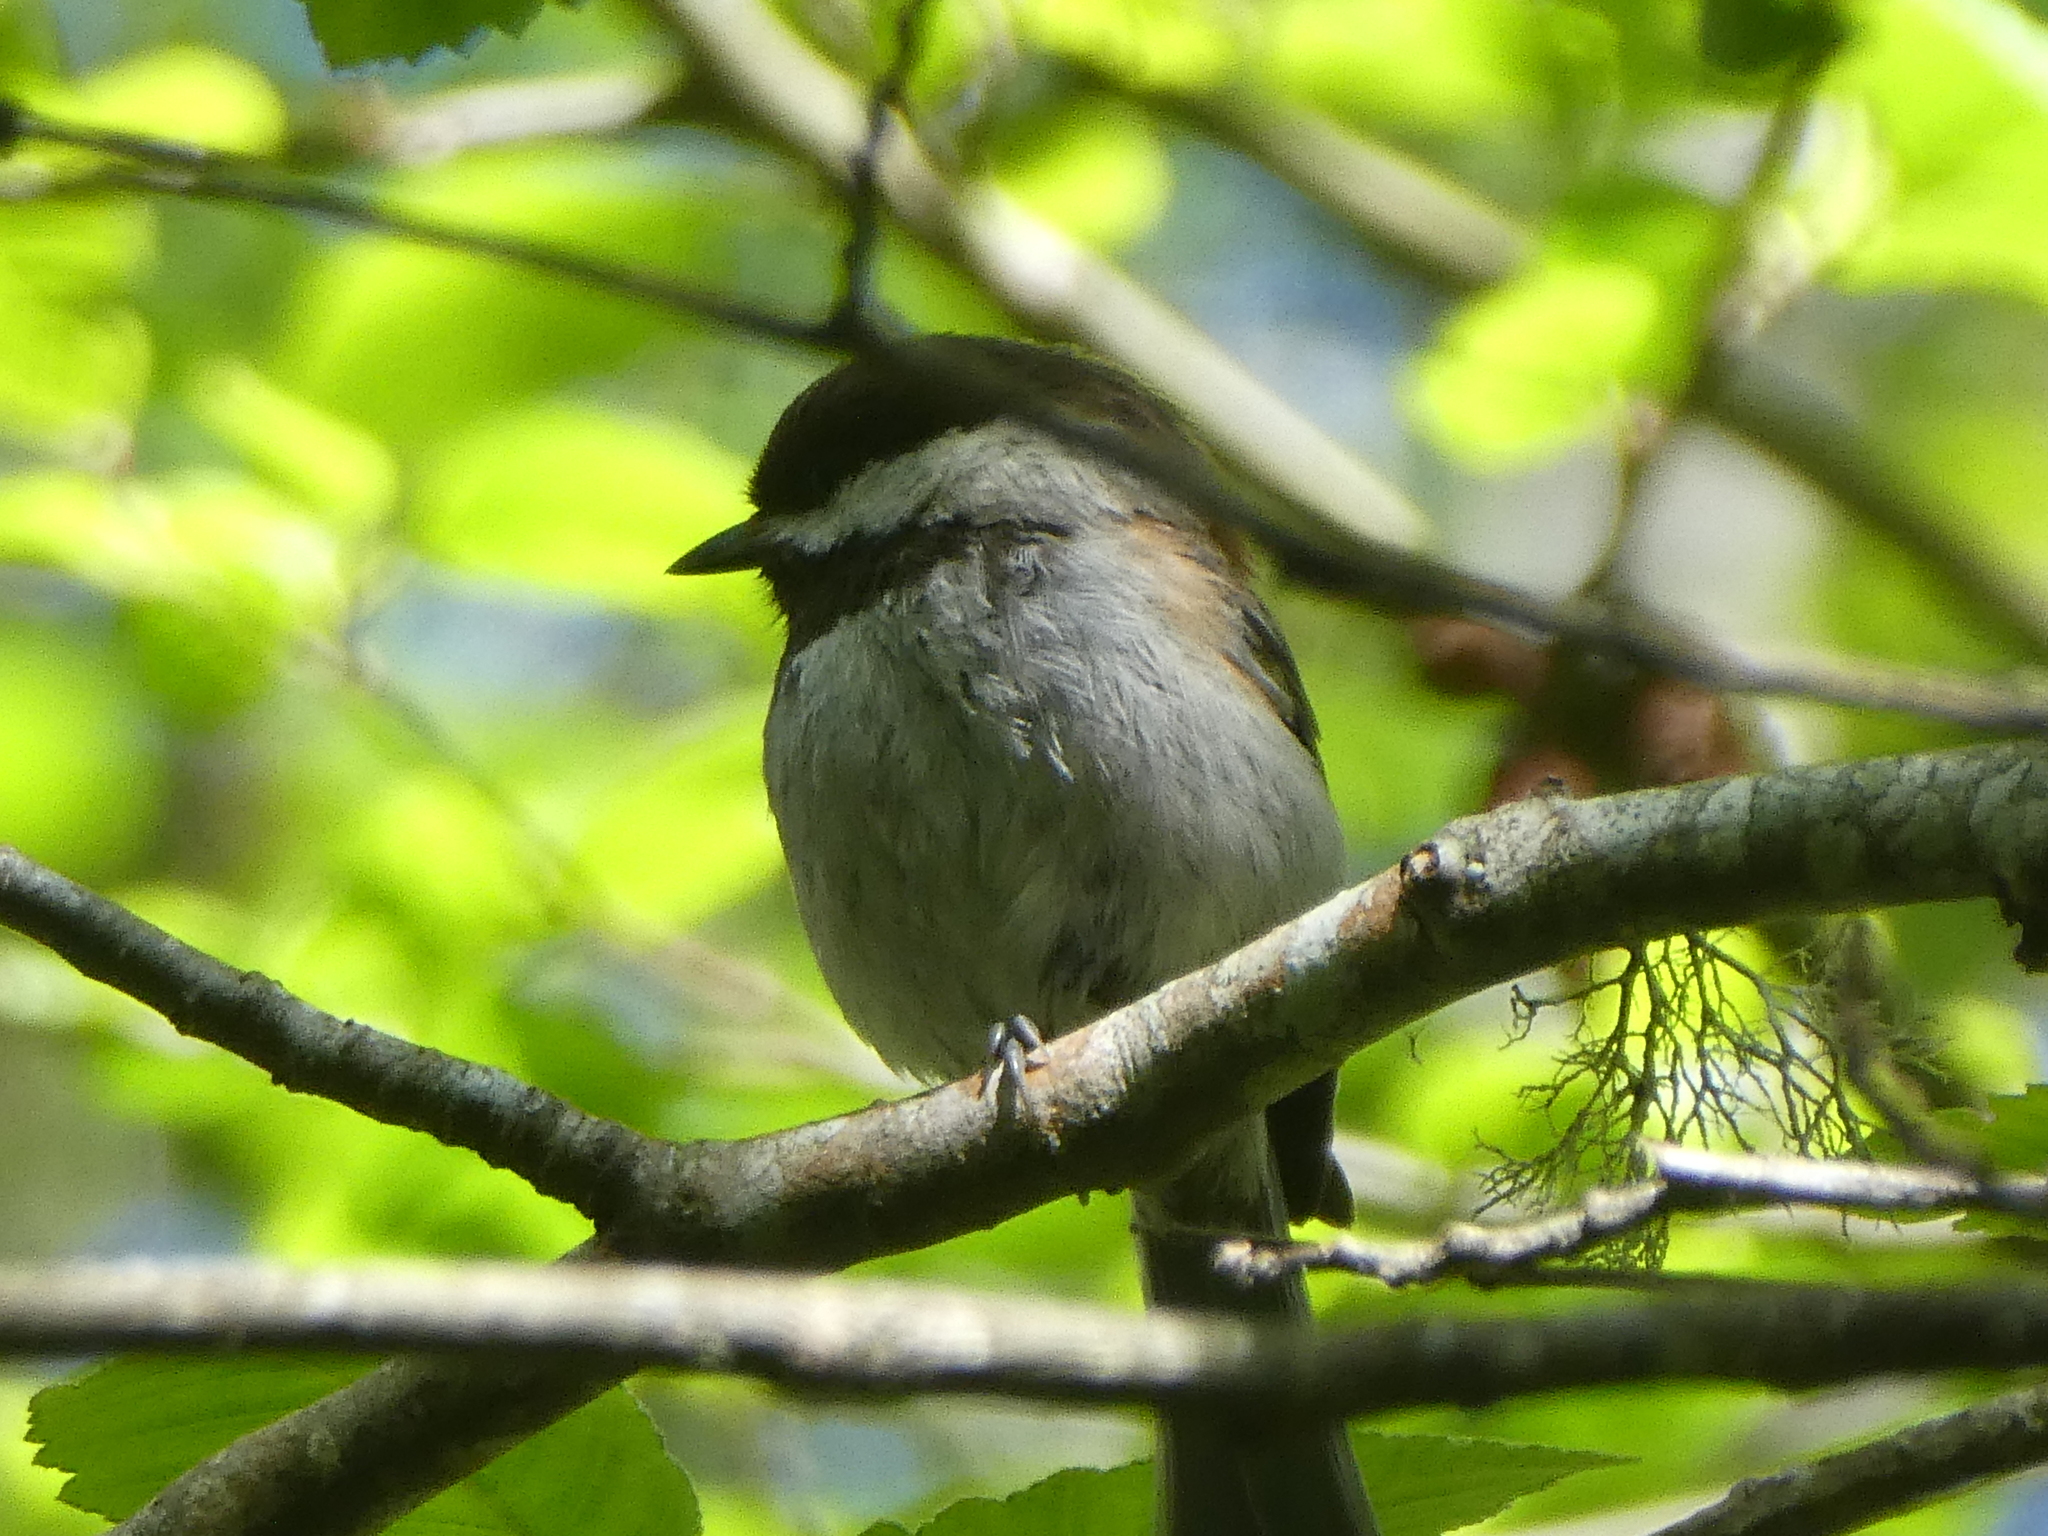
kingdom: Animalia
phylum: Chordata
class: Aves
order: Passeriformes
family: Paridae
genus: Poecile
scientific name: Poecile rufescens
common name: Chestnut-backed chickadee
